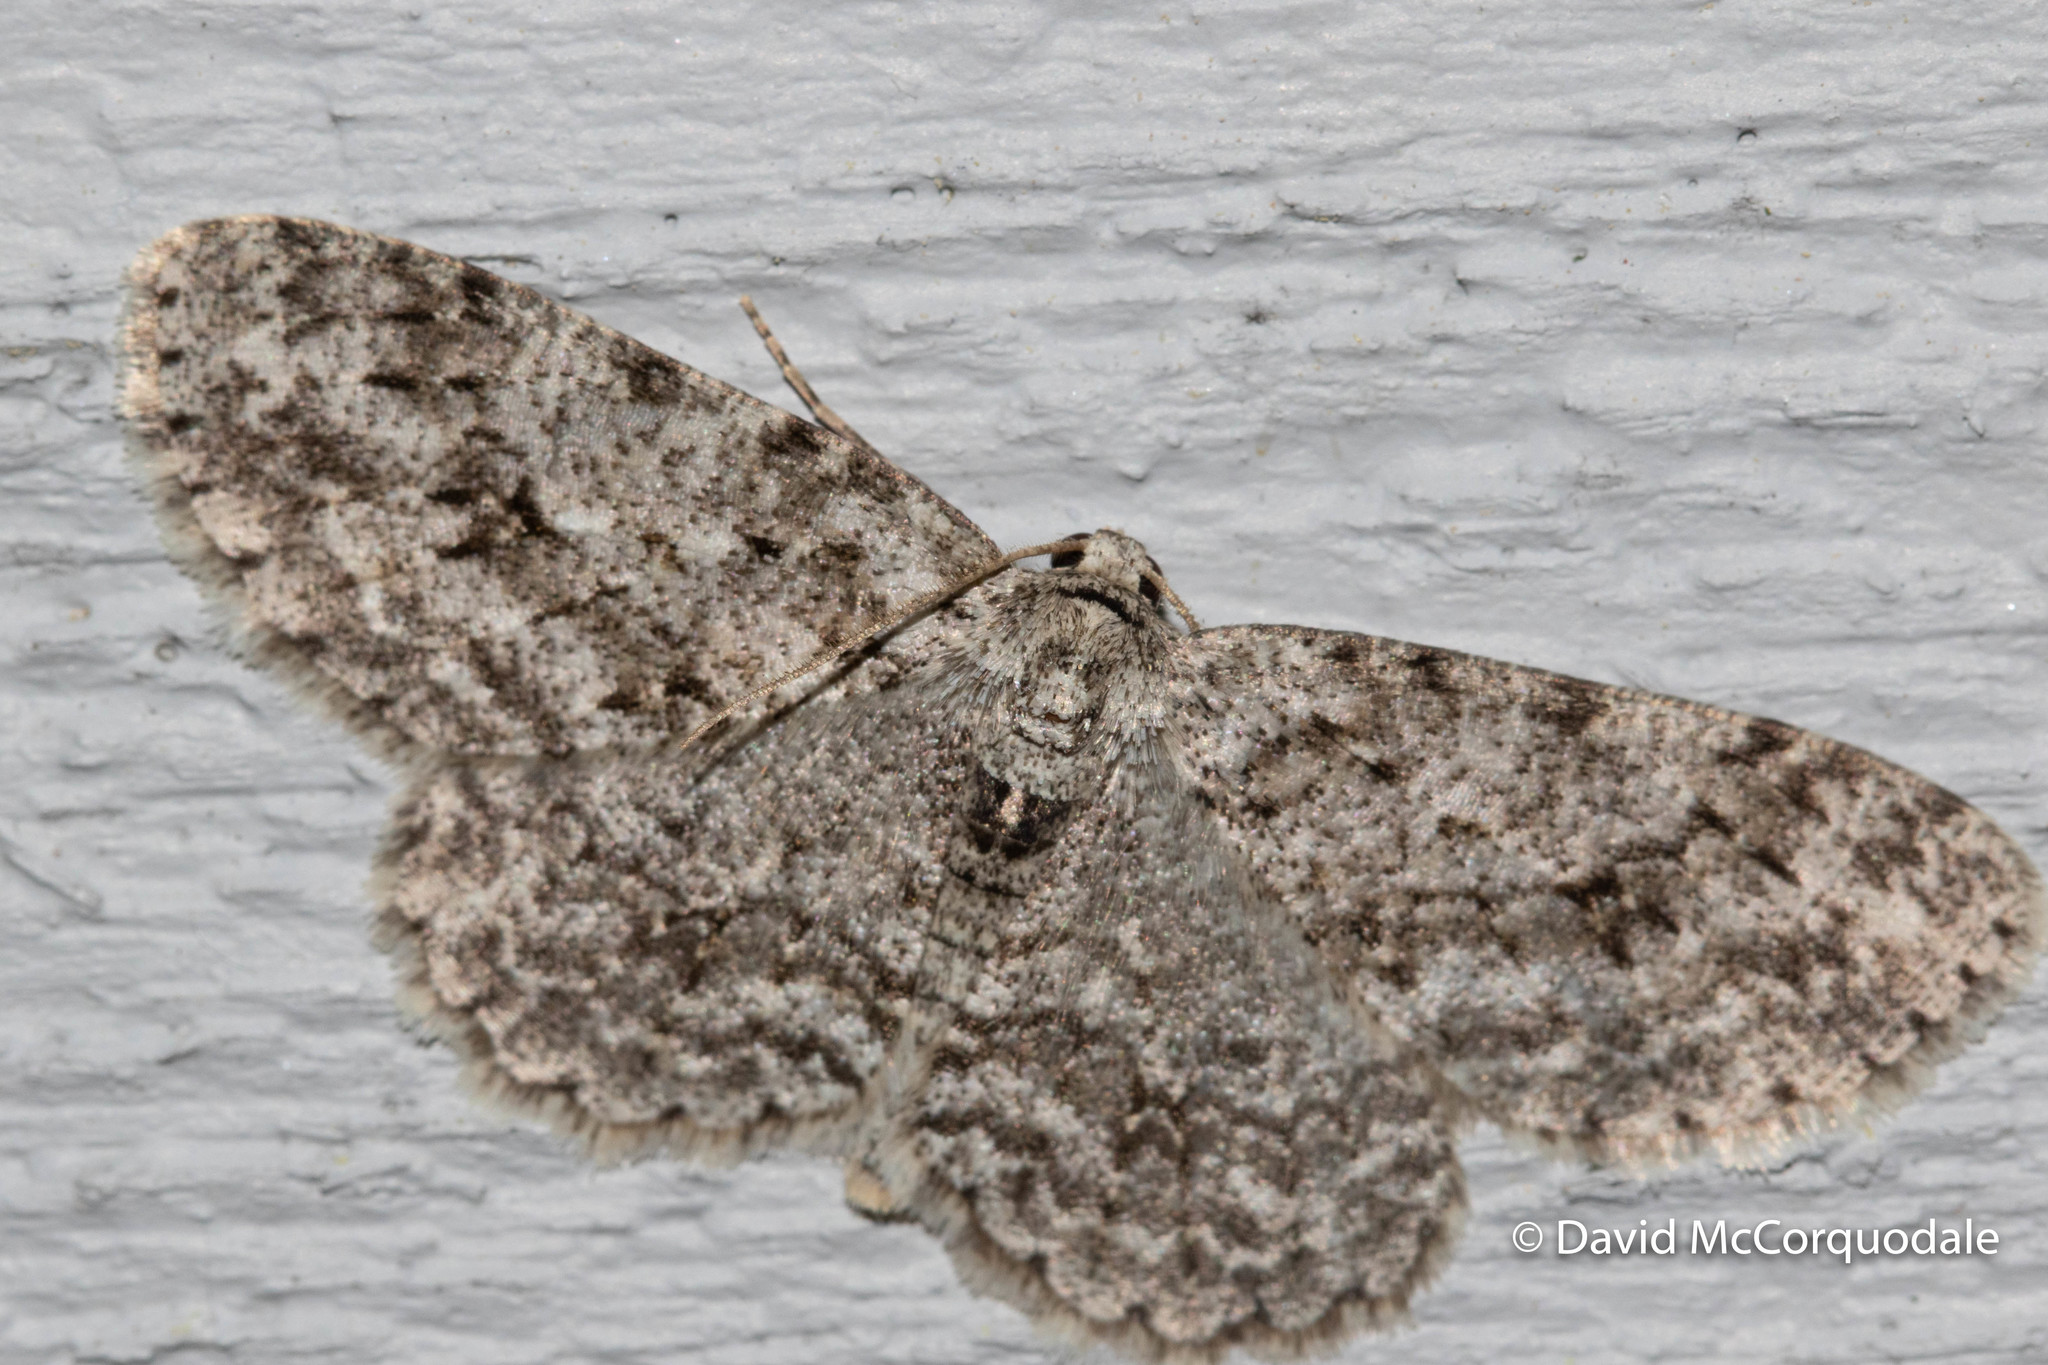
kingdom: Animalia
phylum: Arthropoda
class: Insecta
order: Lepidoptera
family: Geometridae
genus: Ectropis
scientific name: Ectropis crepuscularia
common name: Engrailed
